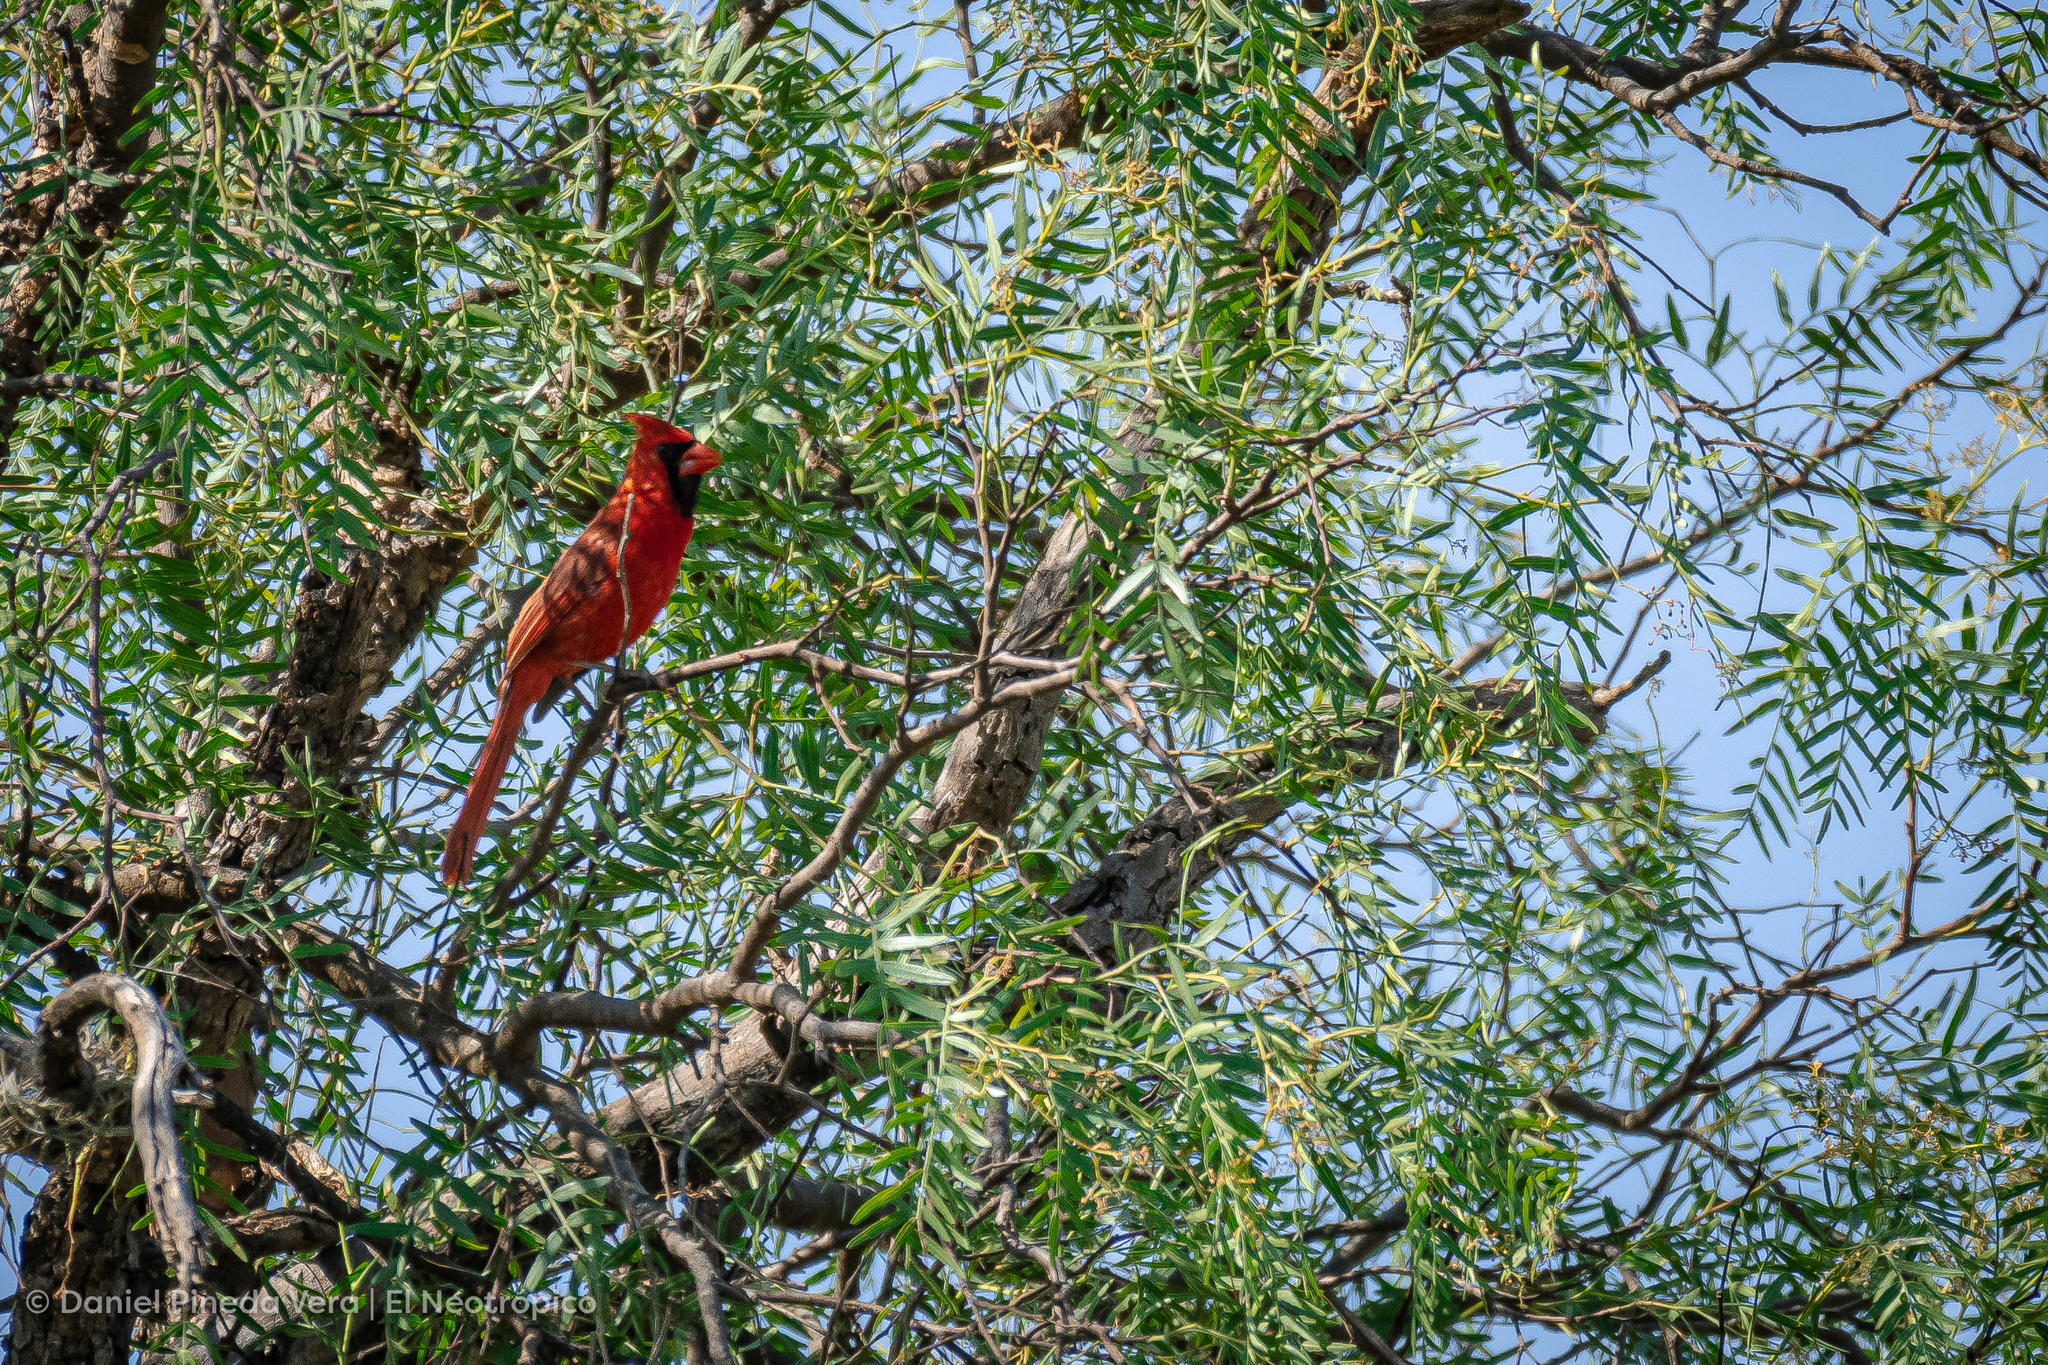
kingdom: Animalia
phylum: Chordata
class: Aves
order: Passeriformes
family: Cardinalidae
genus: Cardinalis
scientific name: Cardinalis cardinalis
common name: Northern cardinal
